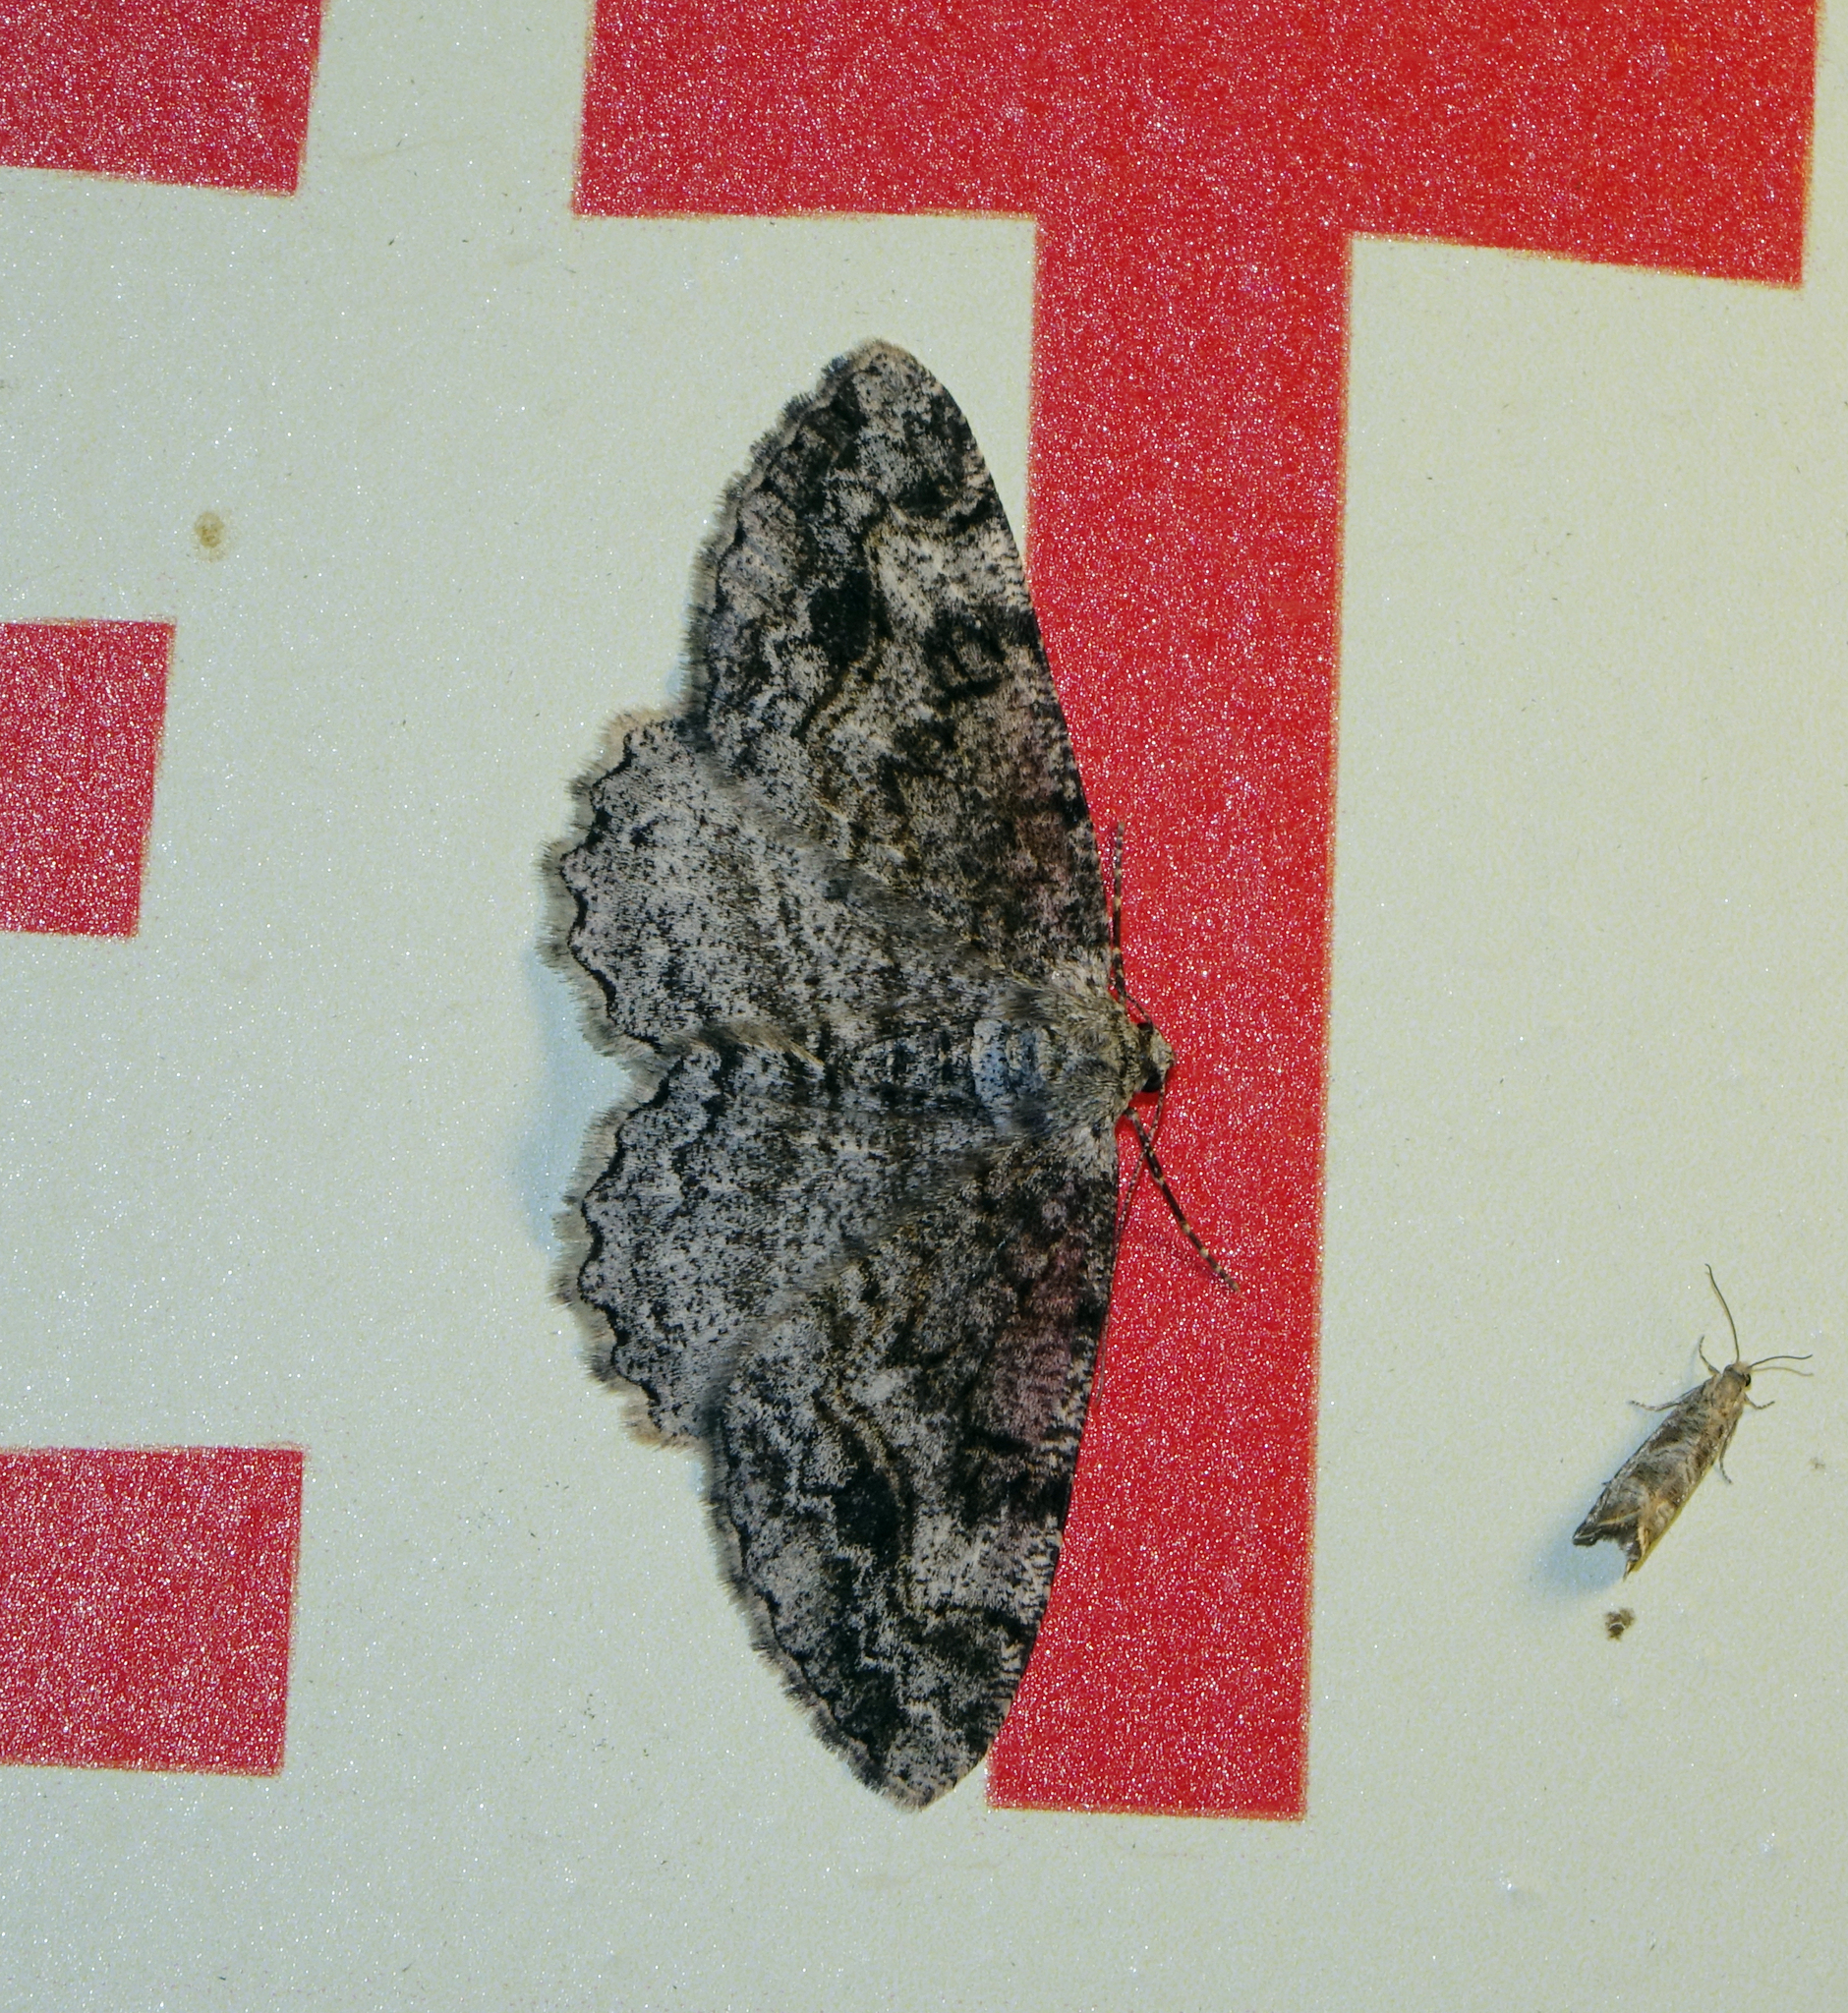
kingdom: Animalia
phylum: Arthropoda
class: Insecta
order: Lepidoptera
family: Geometridae
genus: Alcis
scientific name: Alcis repandata
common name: Mottled beauty
